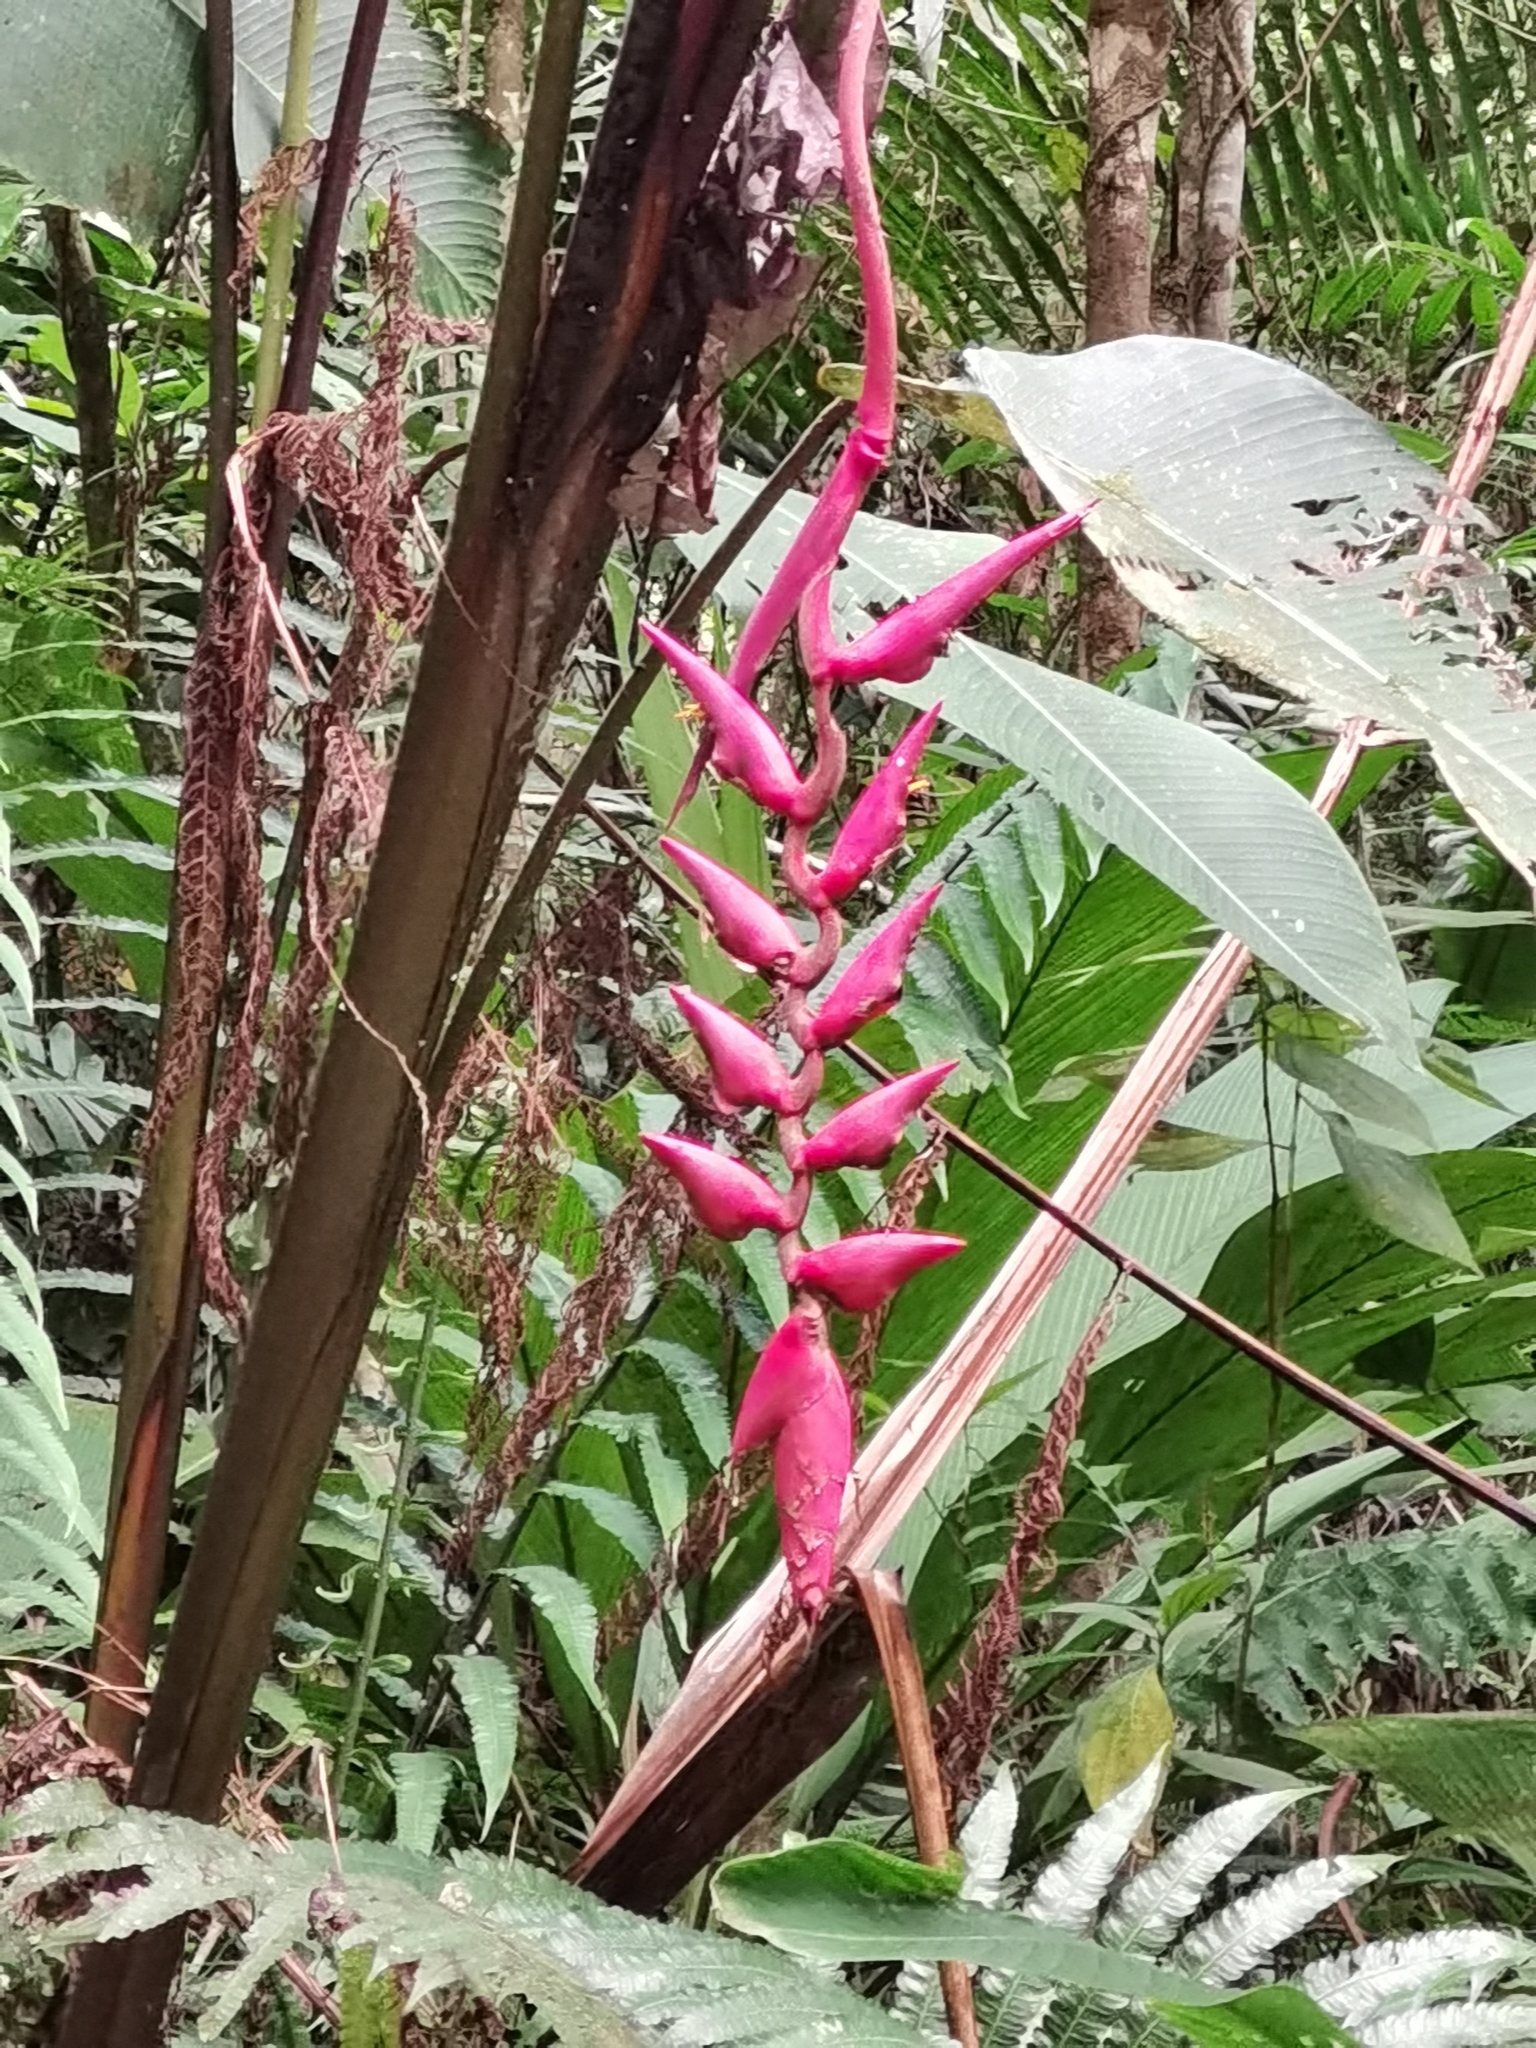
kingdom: Plantae
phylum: Tracheophyta
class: Liliopsida
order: Zingiberales
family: Heliconiaceae
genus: Heliconia
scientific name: Heliconia stilesii
